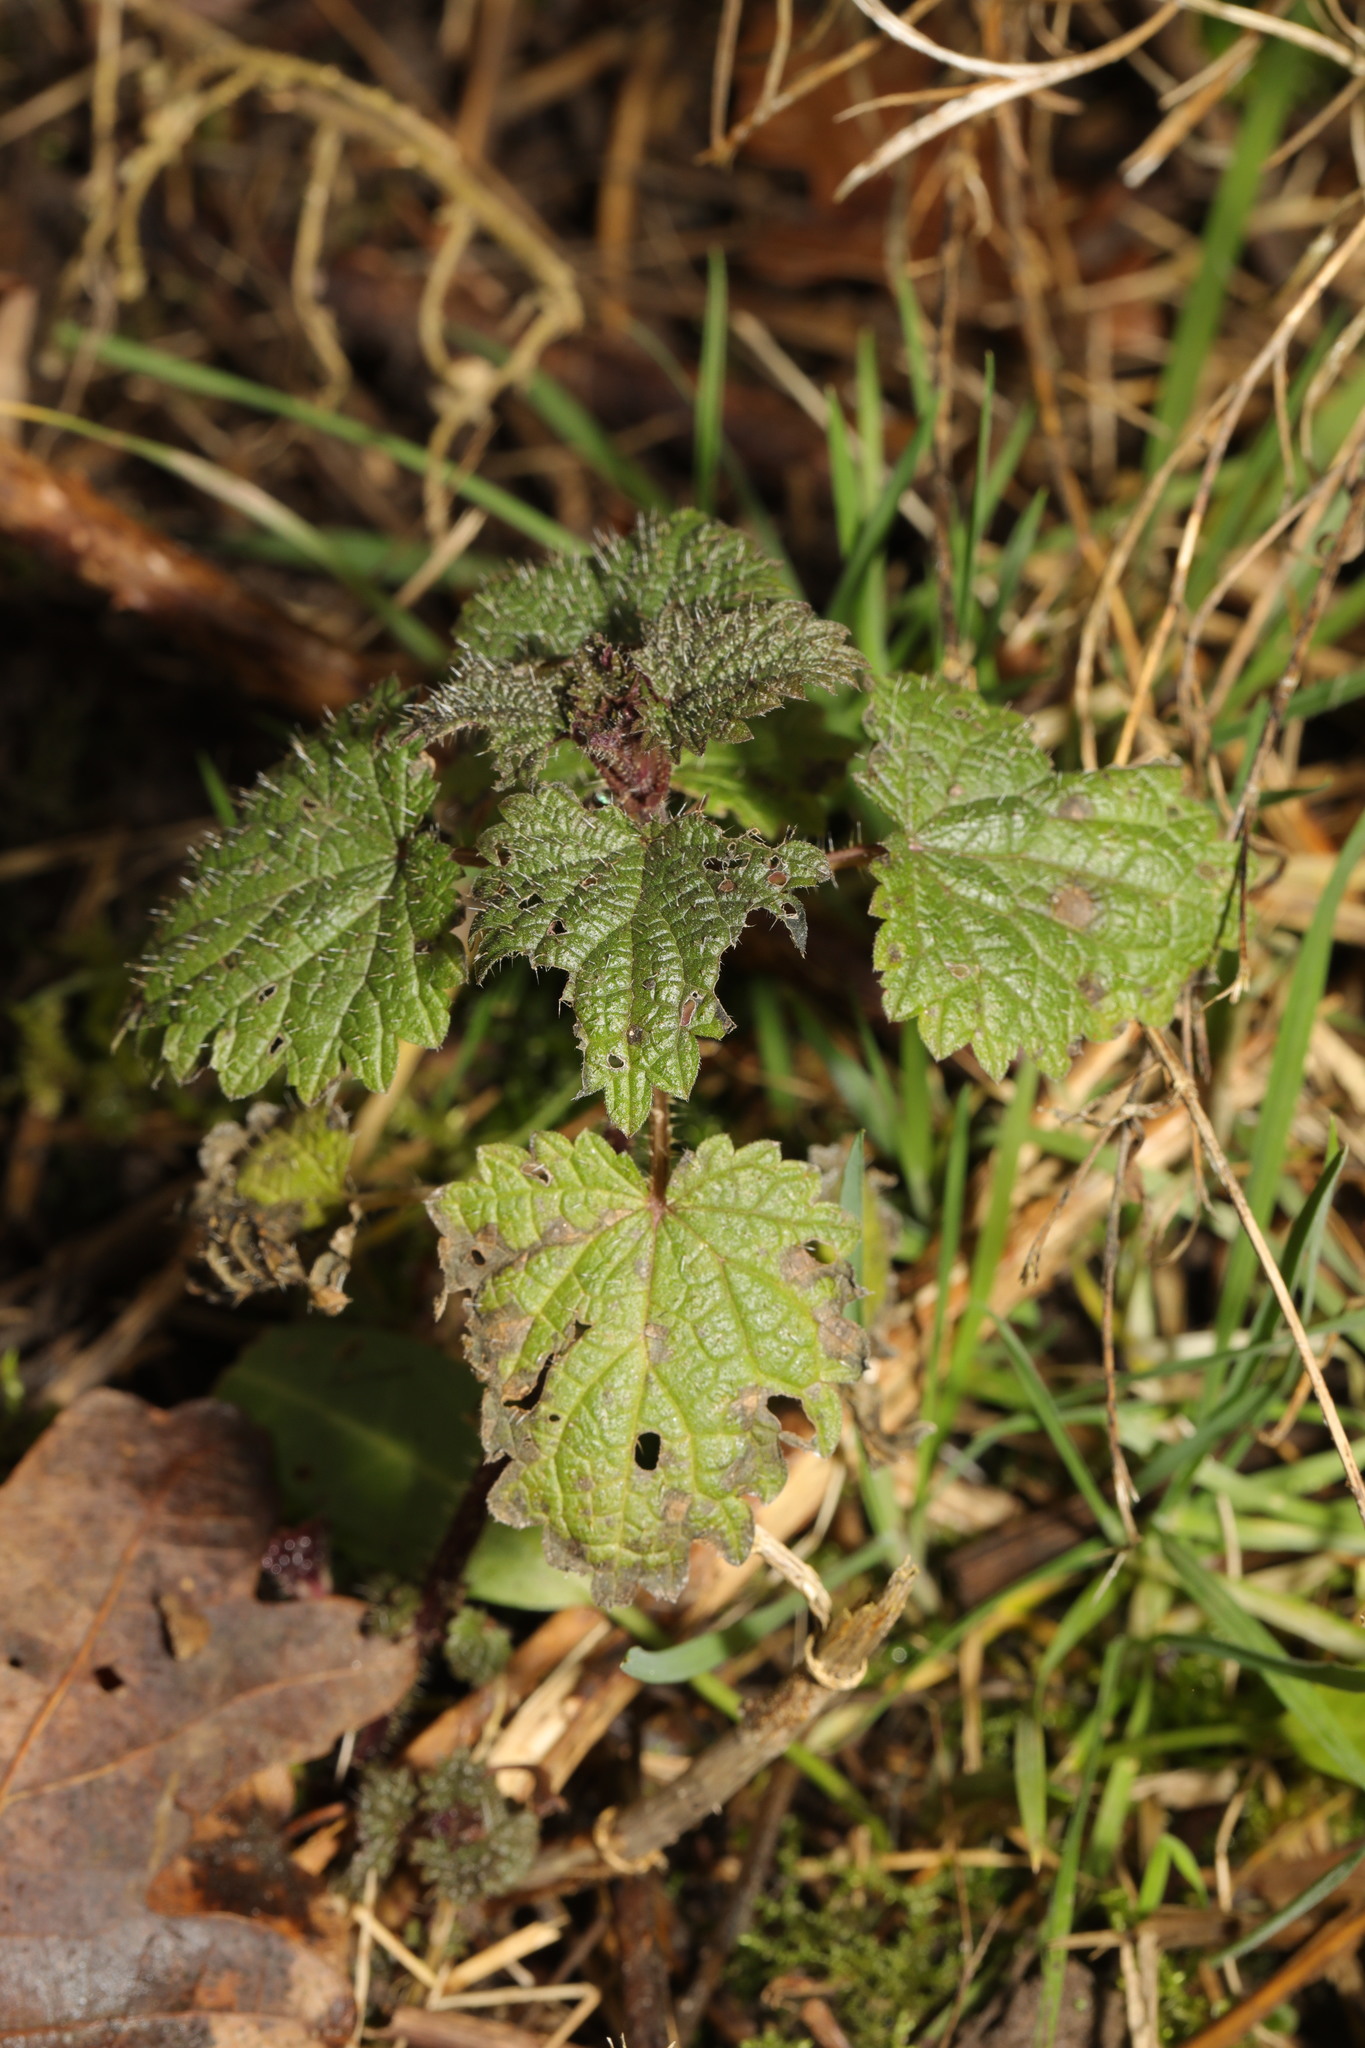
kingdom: Plantae
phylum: Tracheophyta
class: Magnoliopsida
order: Rosales
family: Urticaceae
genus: Urtica
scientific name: Urtica dioica
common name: Common nettle
